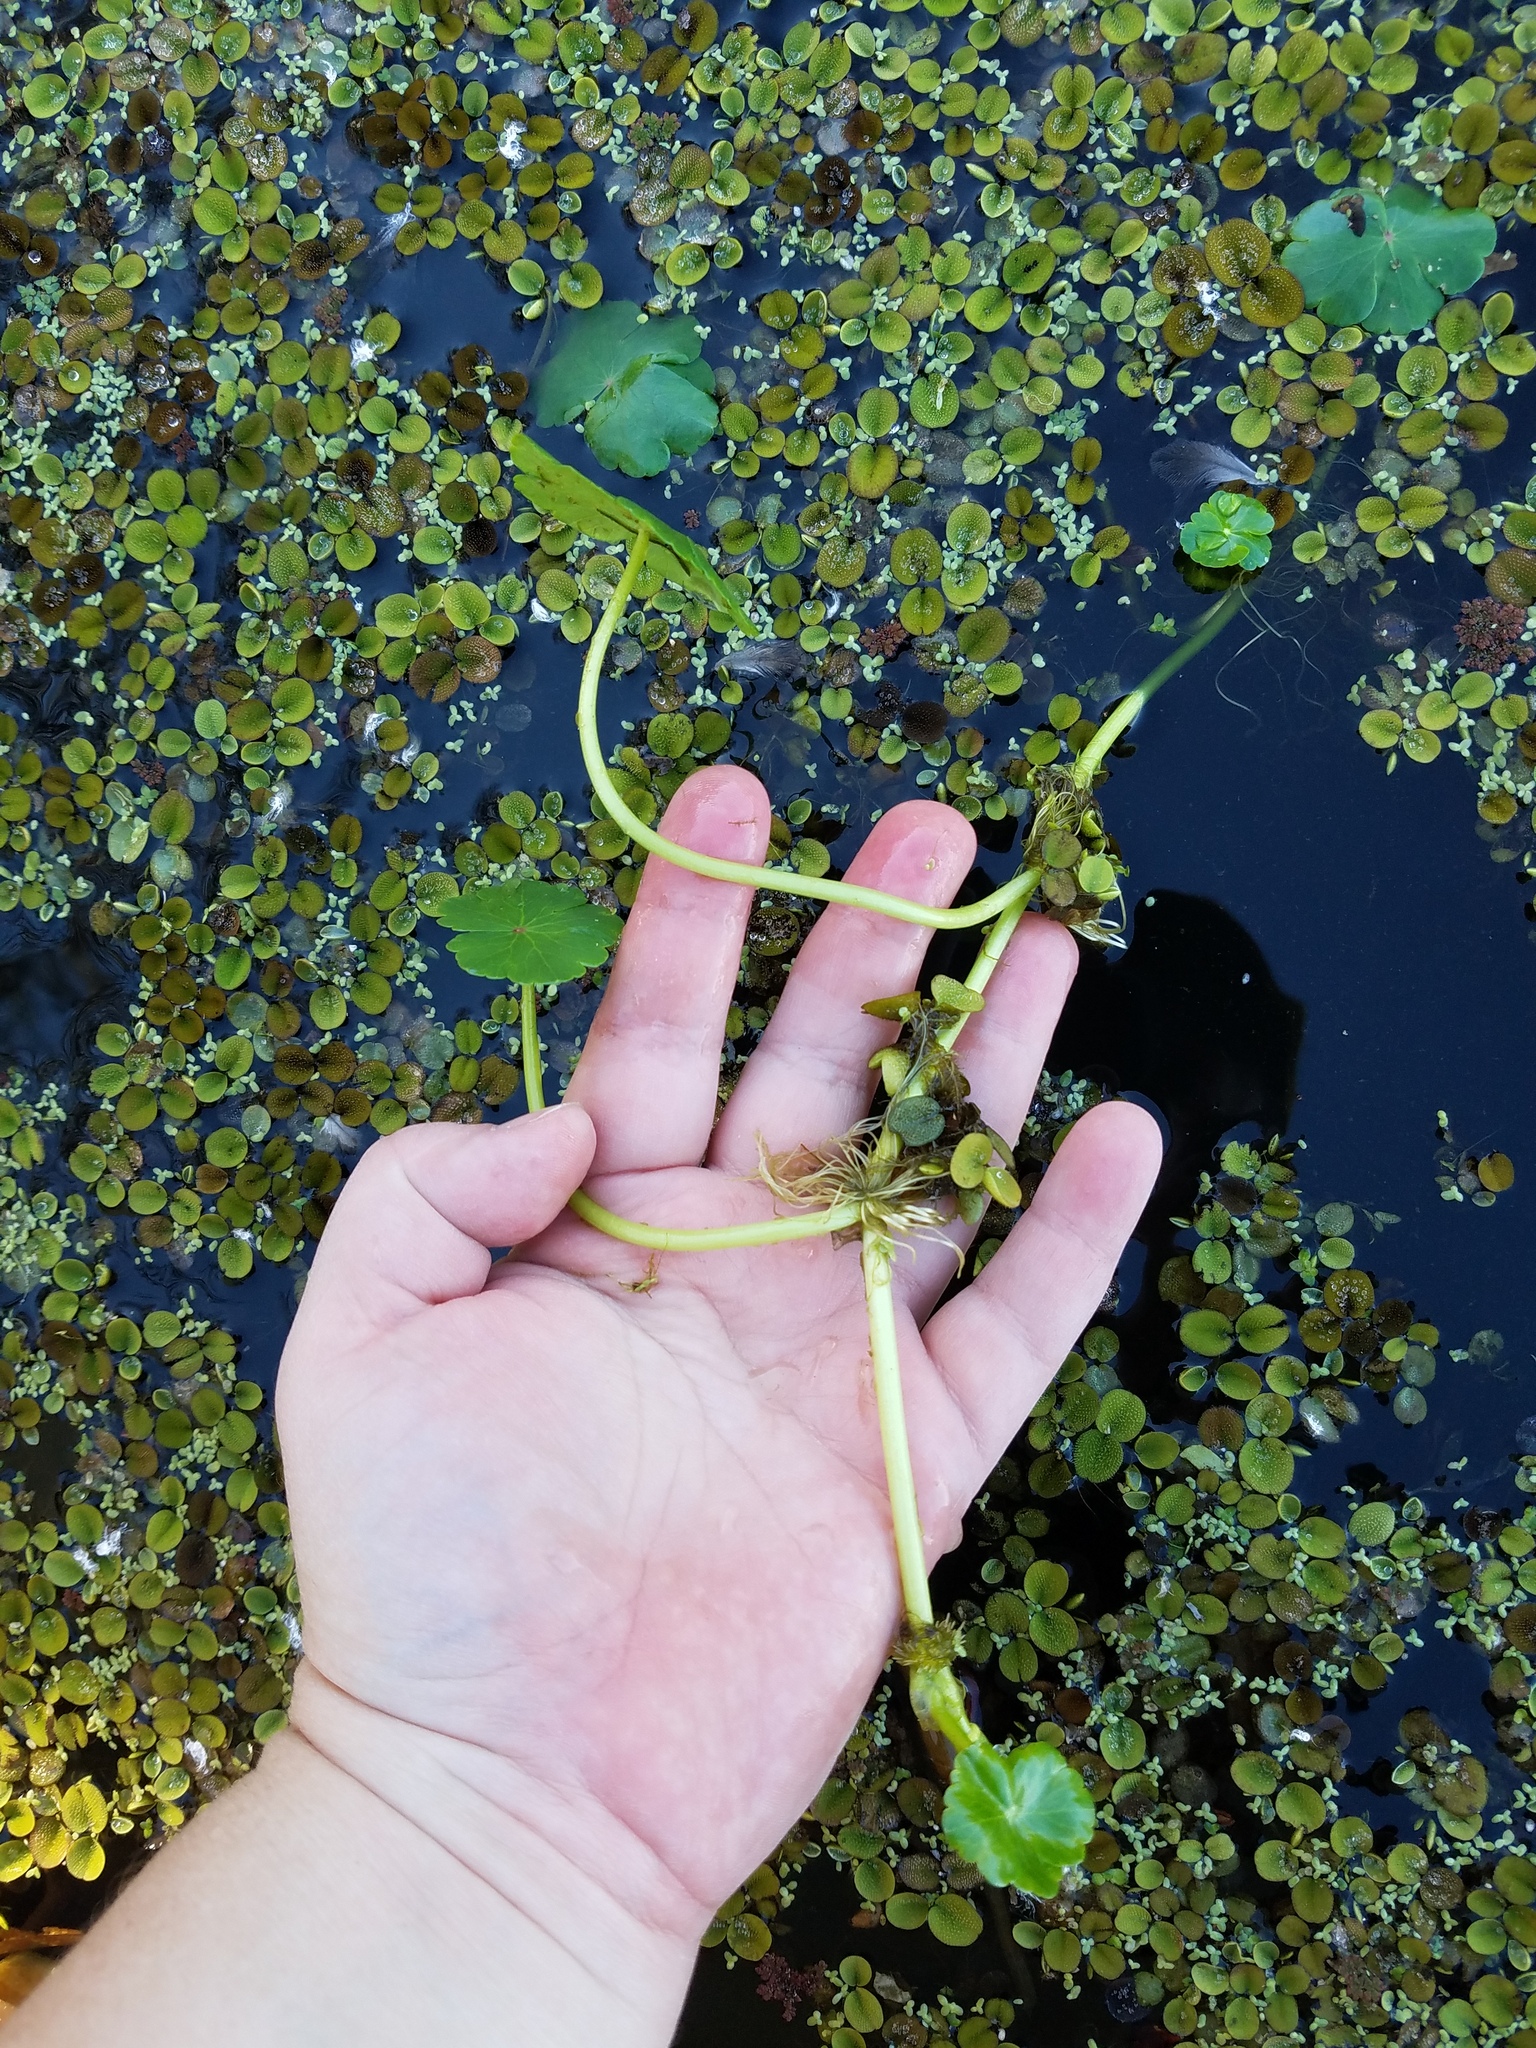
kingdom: Plantae
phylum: Tracheophyta
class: Magnoliopsida
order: Apiales
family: Araliaceae
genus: Hydrocotyle
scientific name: Hydrocotyle ranunculoides
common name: Floating pennywort
